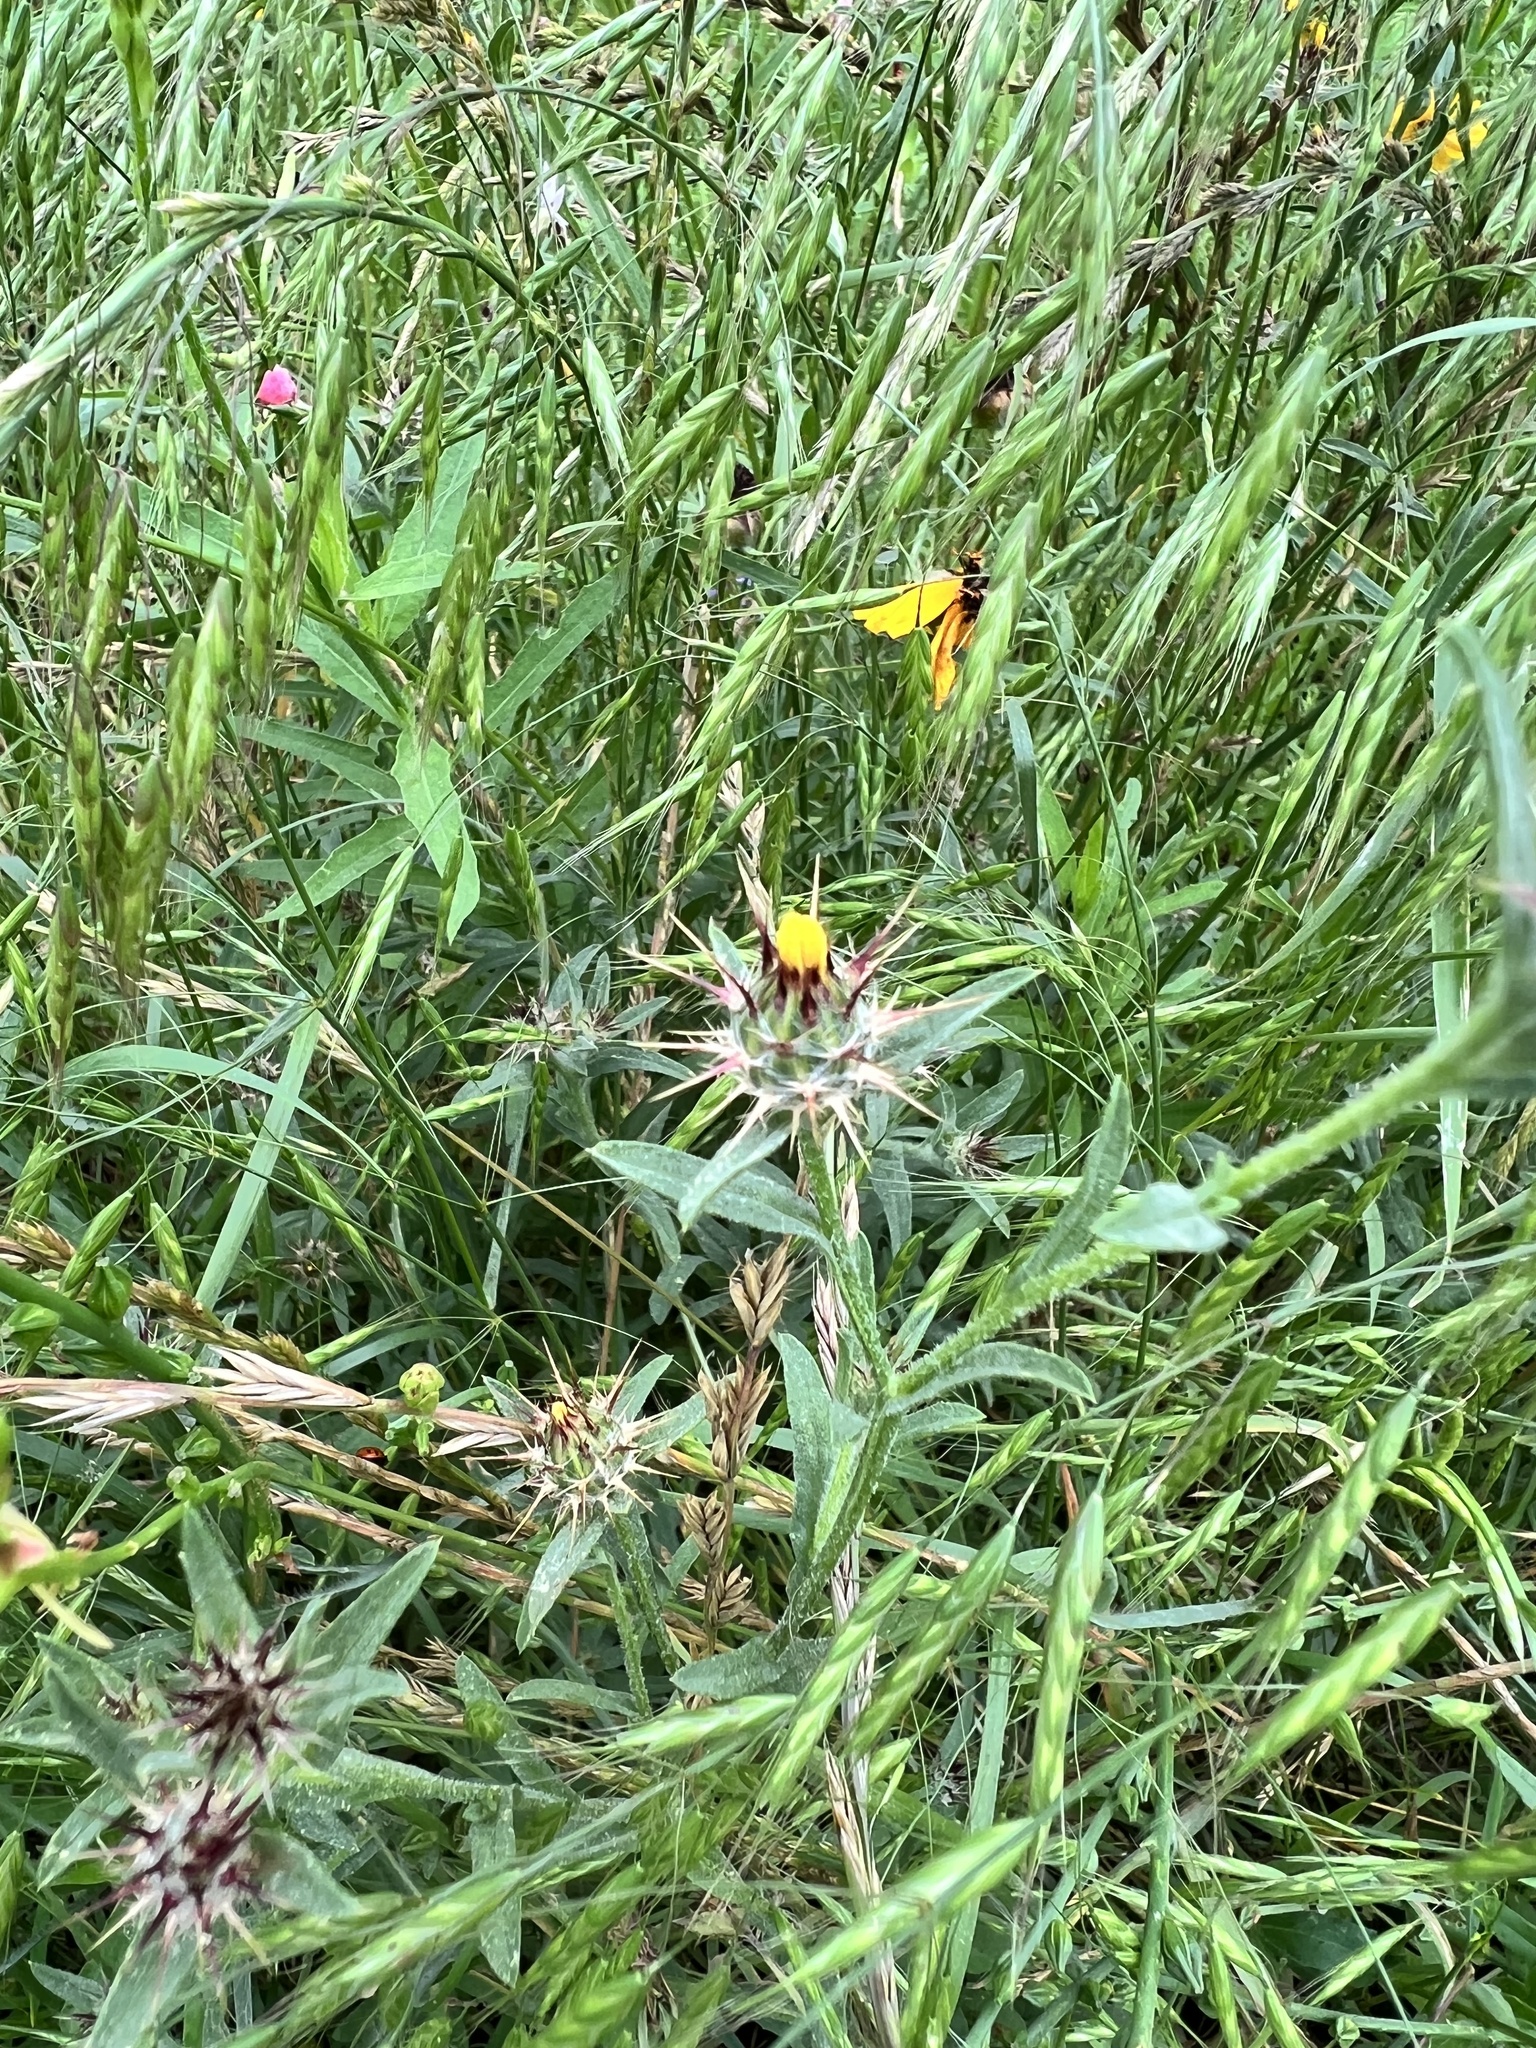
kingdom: Plantae
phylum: Tracheophyta
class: Magnoliopsida
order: Asterales
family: Asteraceae
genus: Centaurea
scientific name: Centaurea melitensis
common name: Maltese star-thistle
